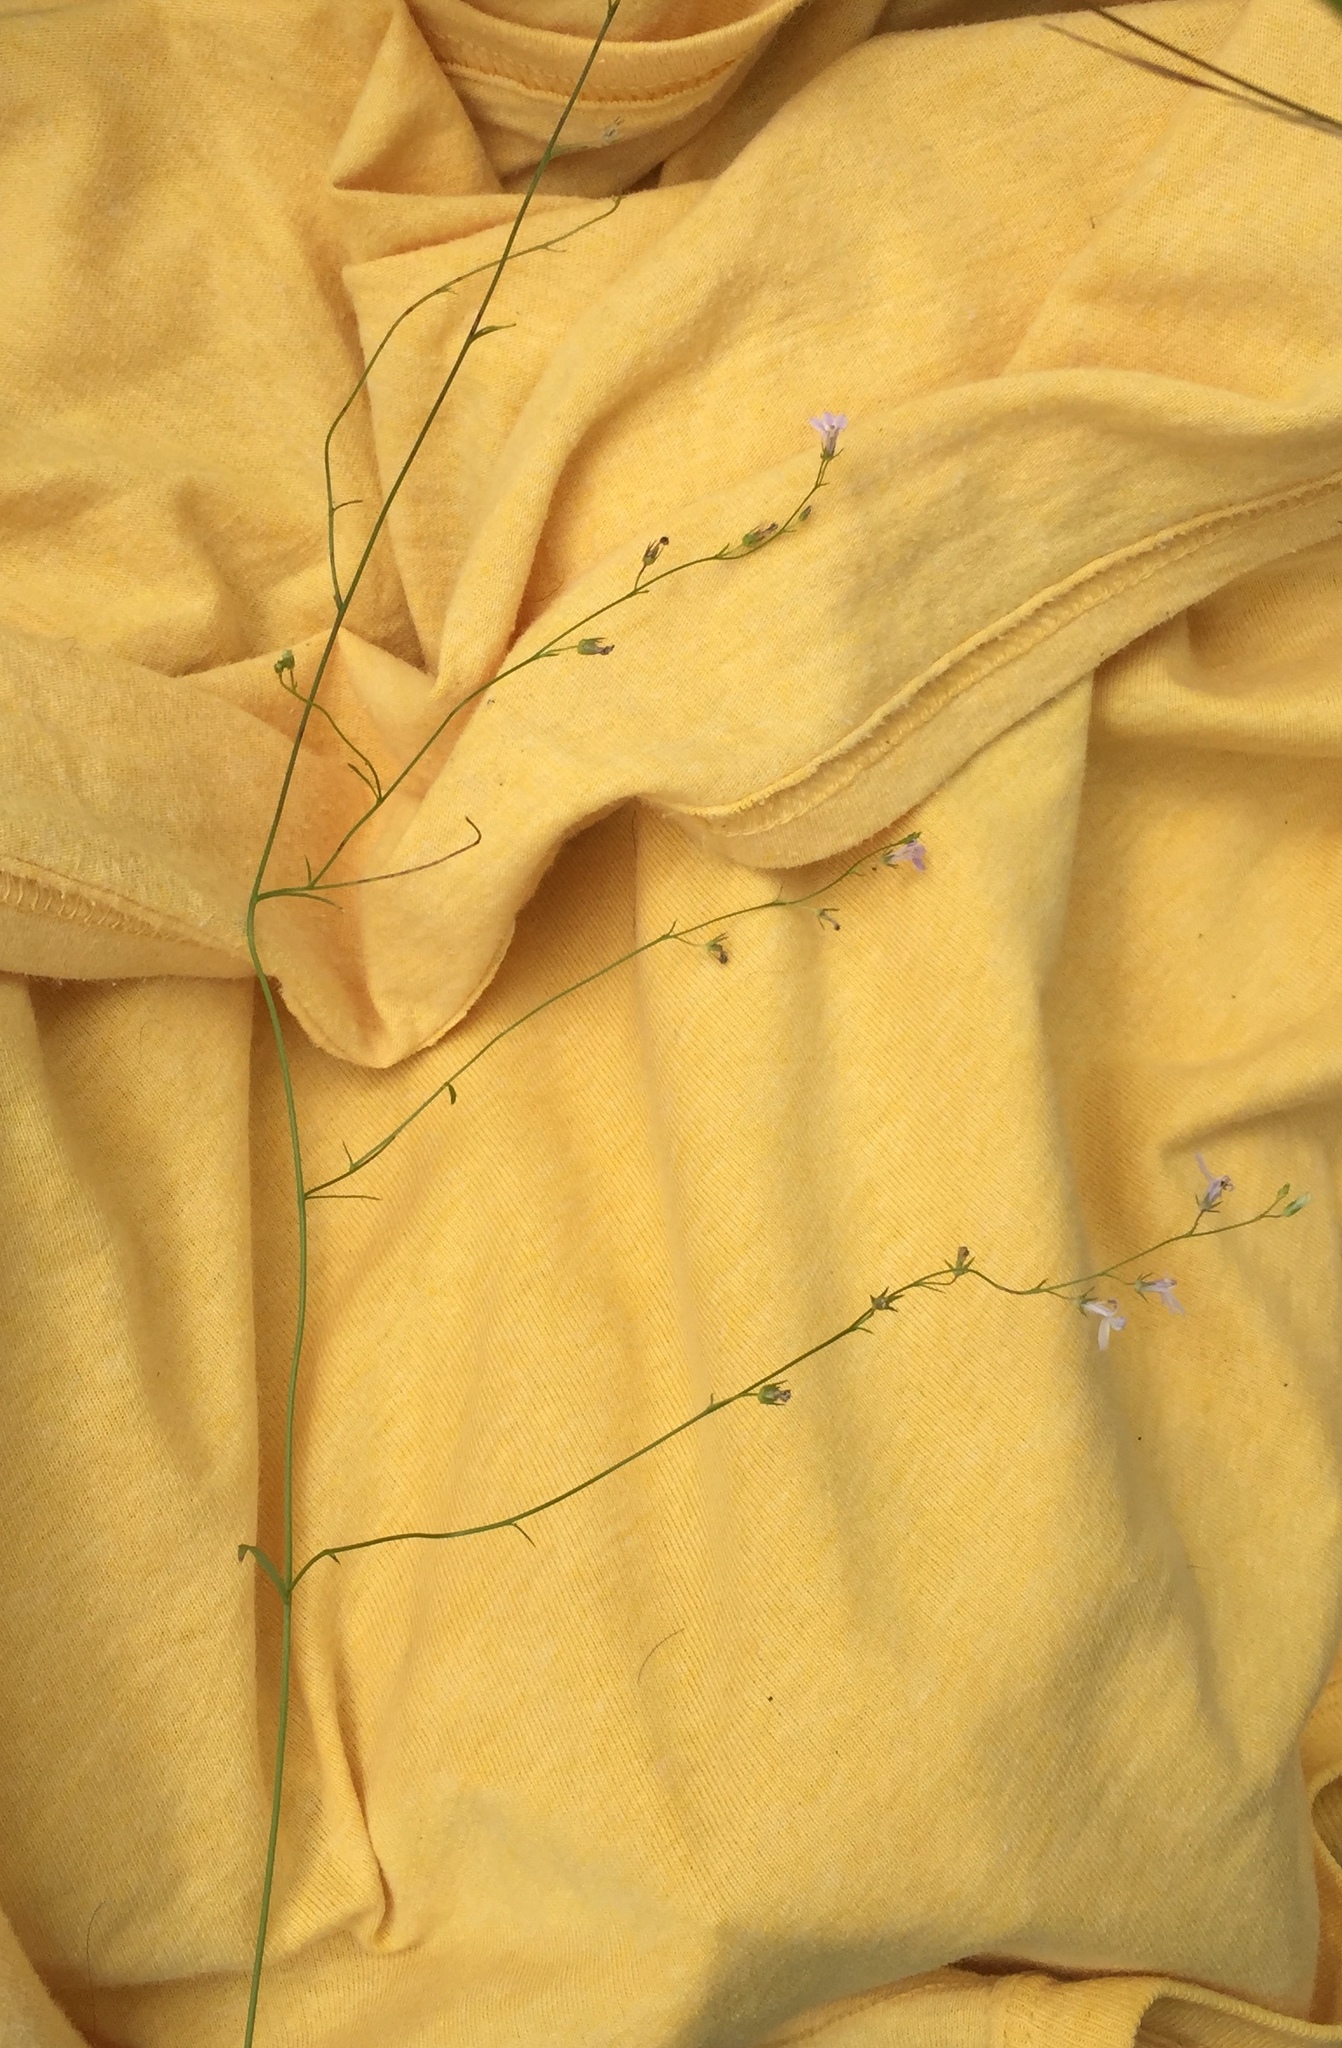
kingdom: Plantae
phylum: Tracheophyta
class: Magnoliopsida
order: Asterales
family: Campanulaceae
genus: Lobelia
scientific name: Lobelia nuttallii
